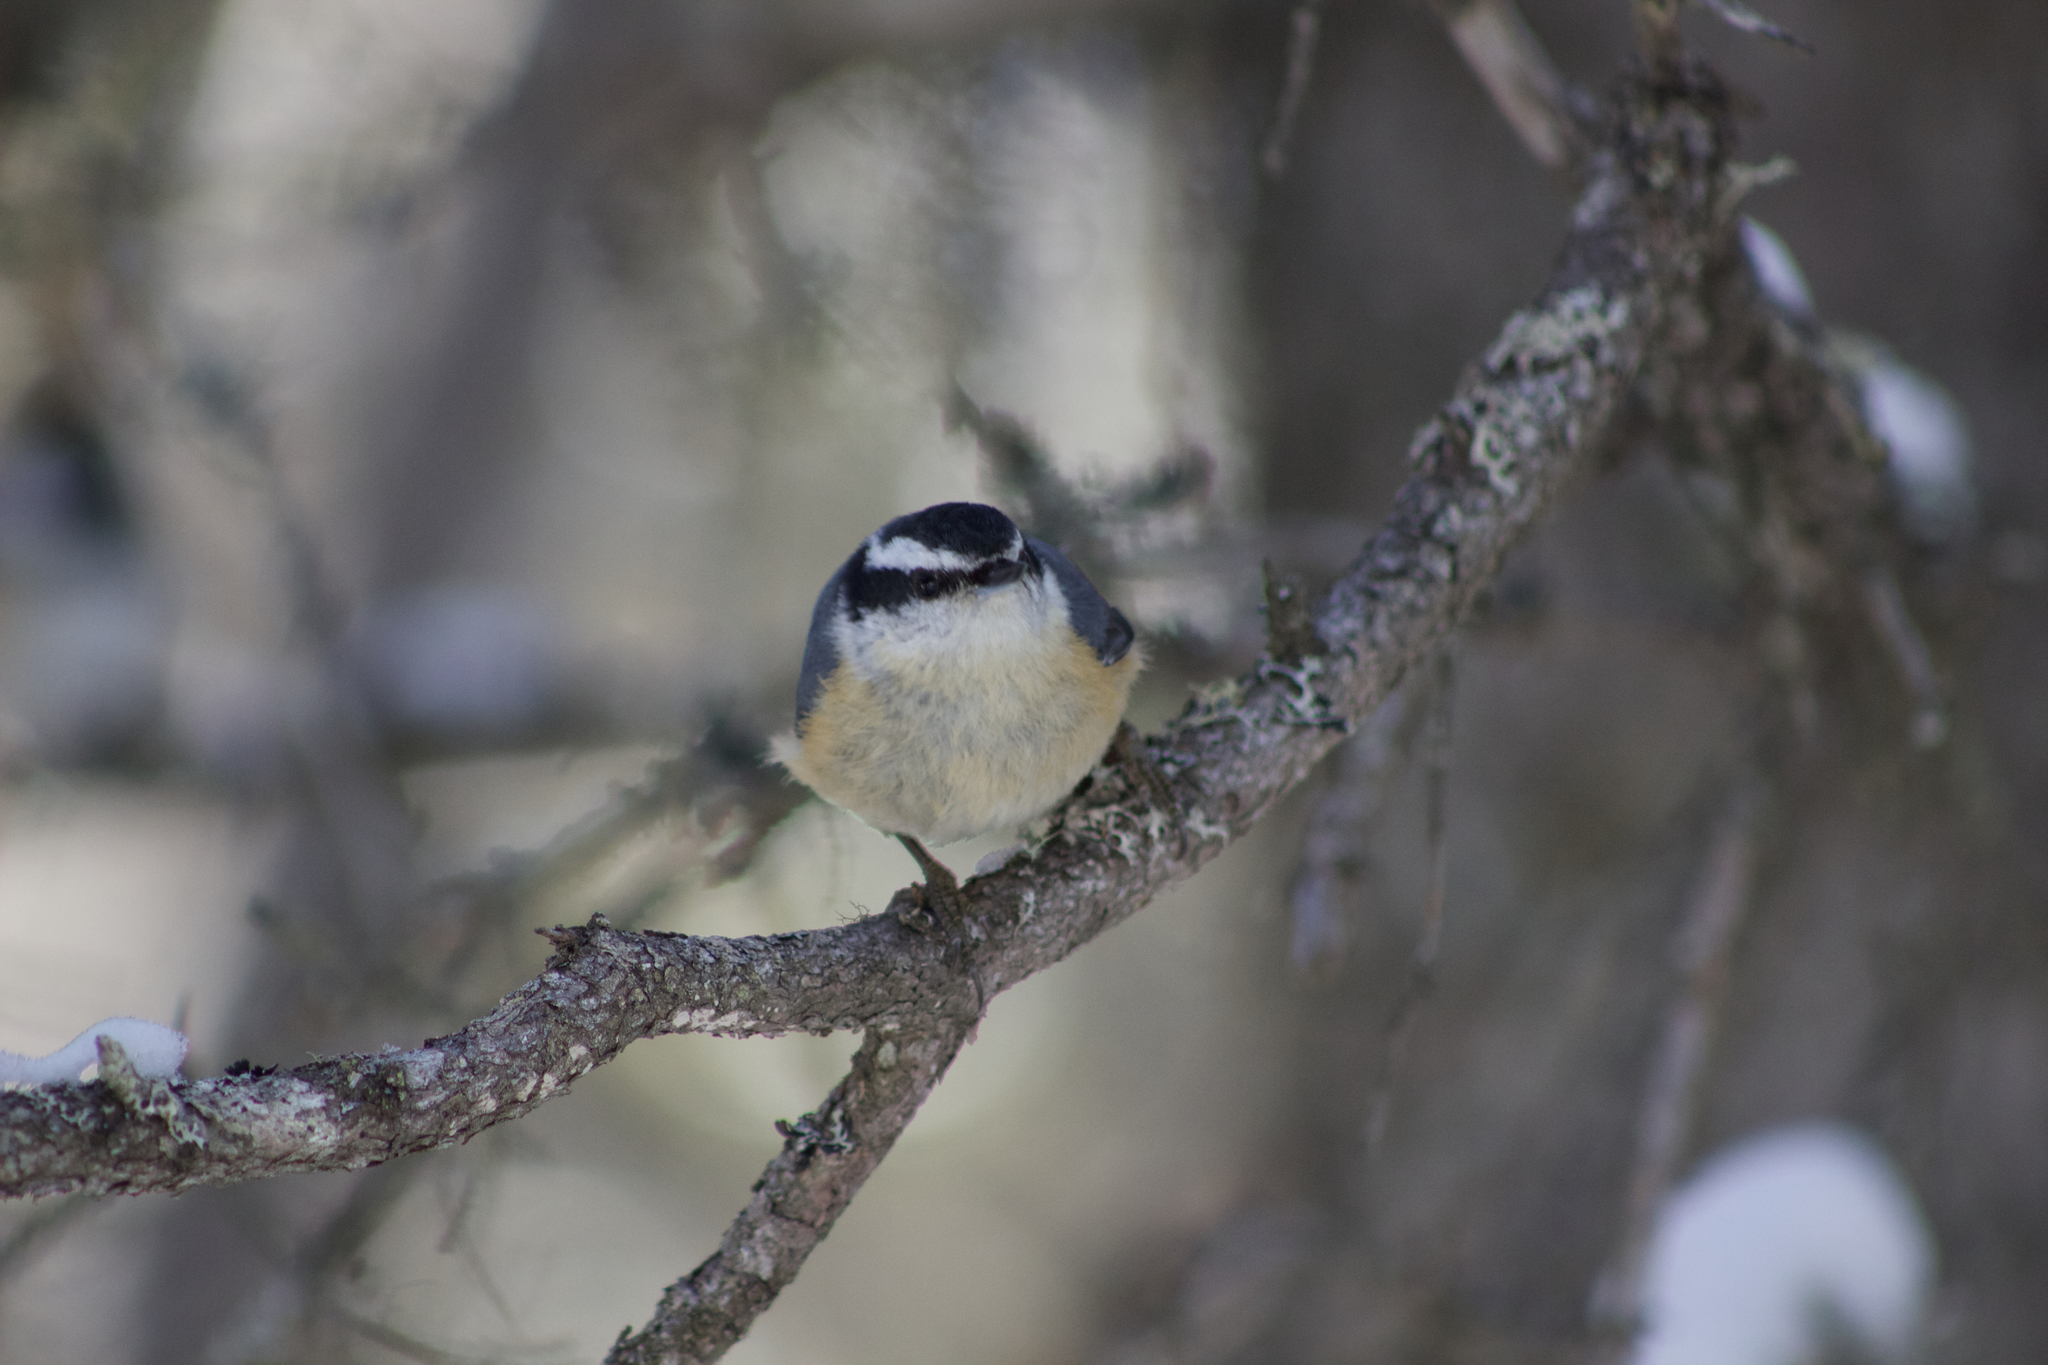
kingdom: Animalia
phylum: Chordata
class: Aves
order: Passeriformes
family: Sittidae
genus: Sitta
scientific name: Sitta canadensis
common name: Red-breasted nuthatch
